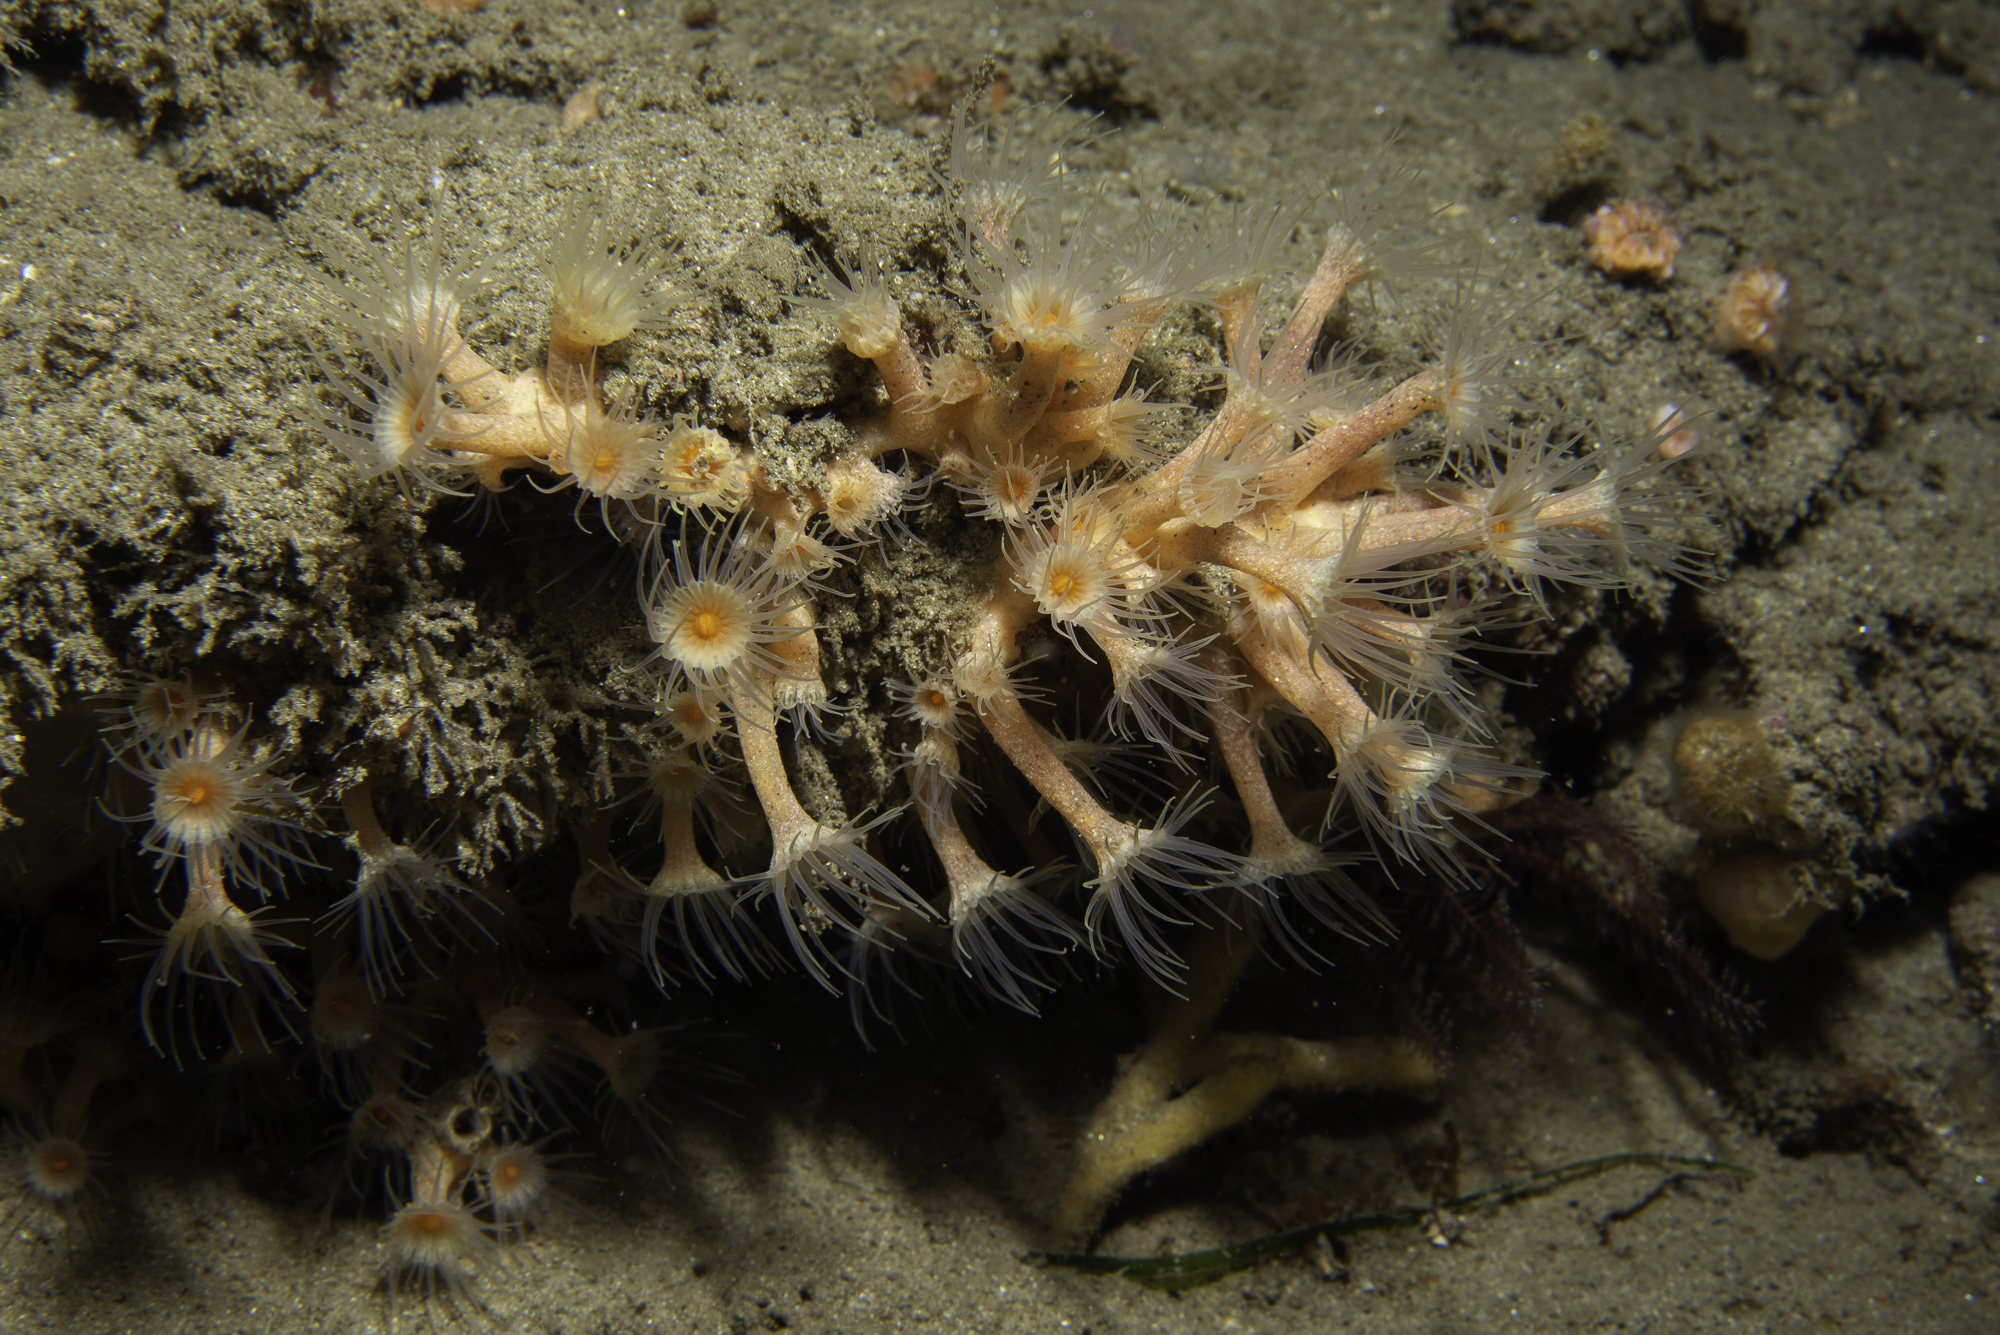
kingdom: Animalia
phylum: Cnidaria
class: Anthozoa
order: Zoantharia
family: Parazoanthidae
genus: Parazoanthus
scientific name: Parazoanthus axinellae
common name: Yellow cluster anemone
